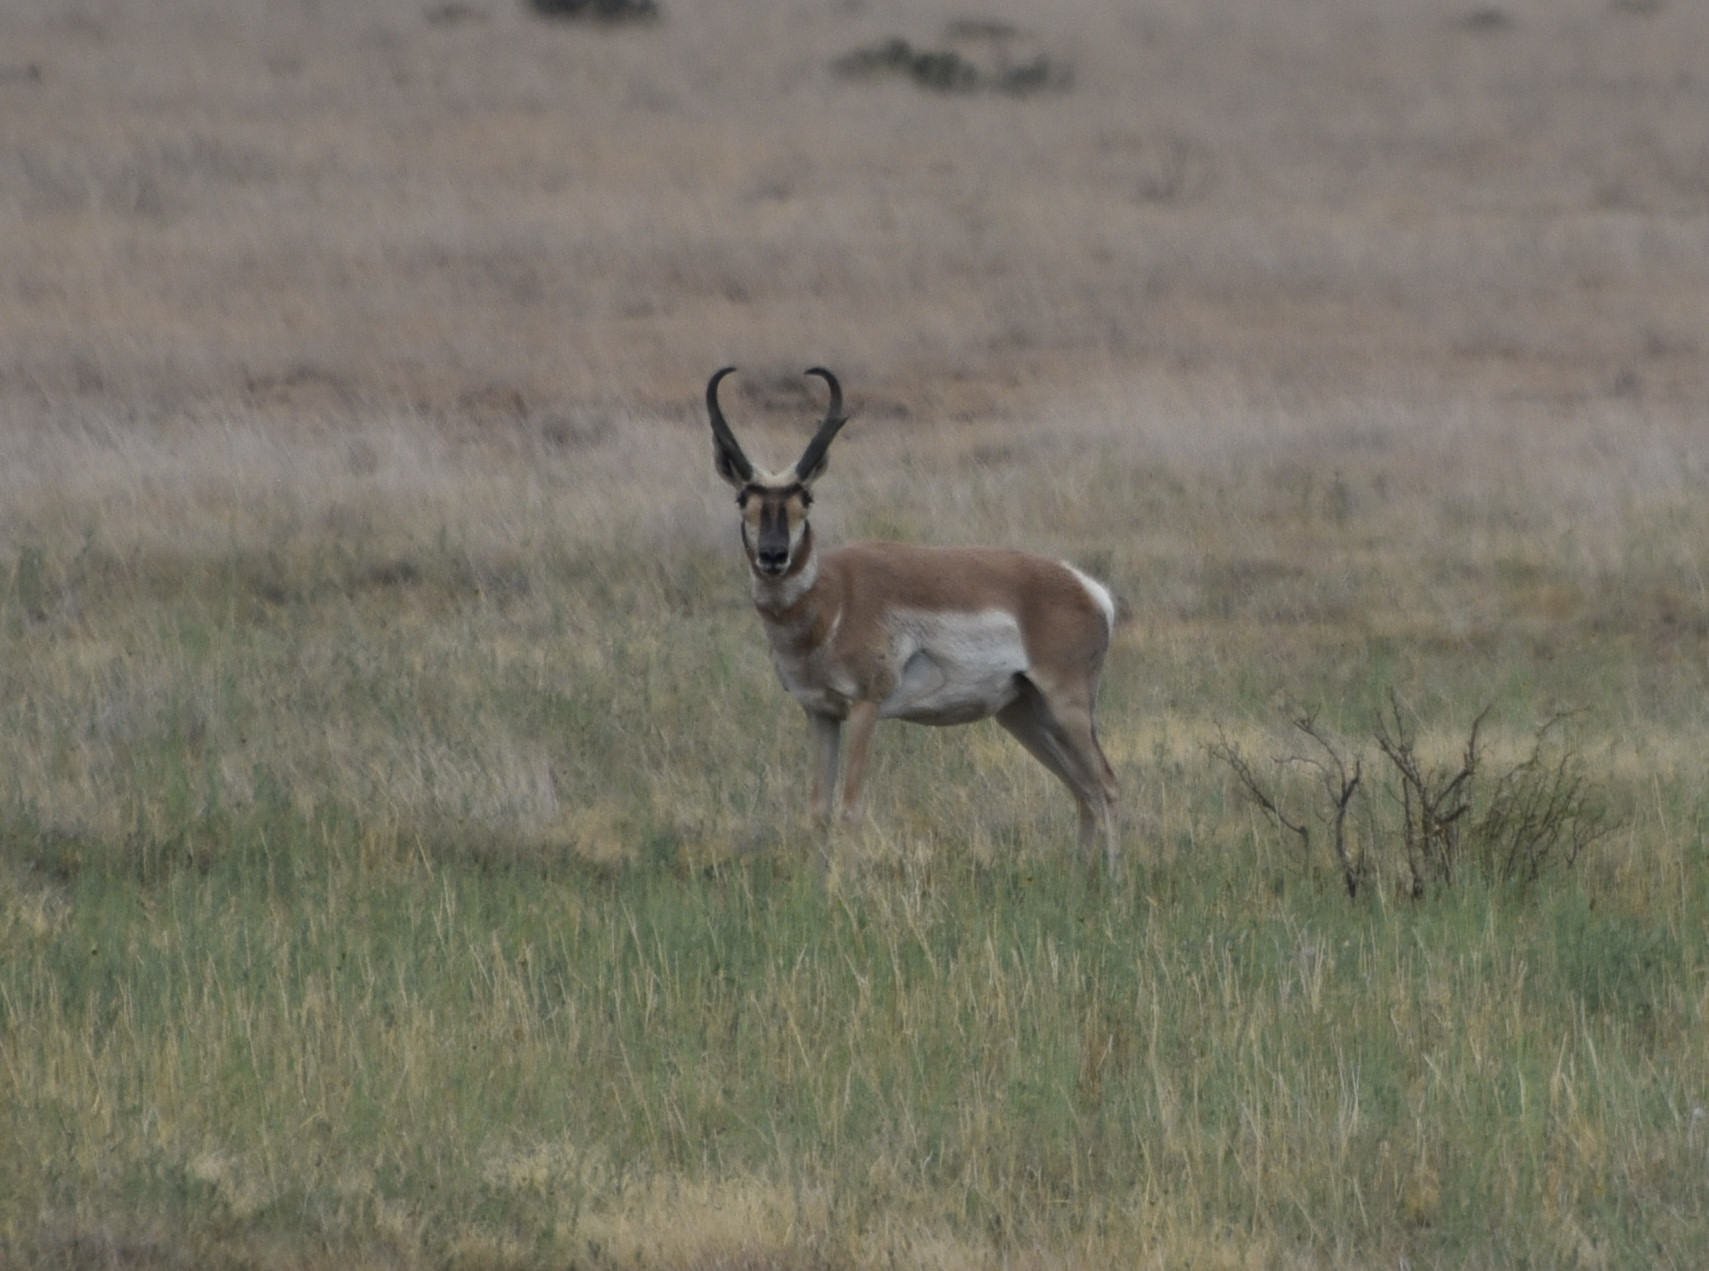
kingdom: Animalia
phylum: Chordata
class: Mammalia
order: Artiodactyla
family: Antilocapridae
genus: Antilocapra
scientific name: Antilocapra americana
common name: Pronghorn
